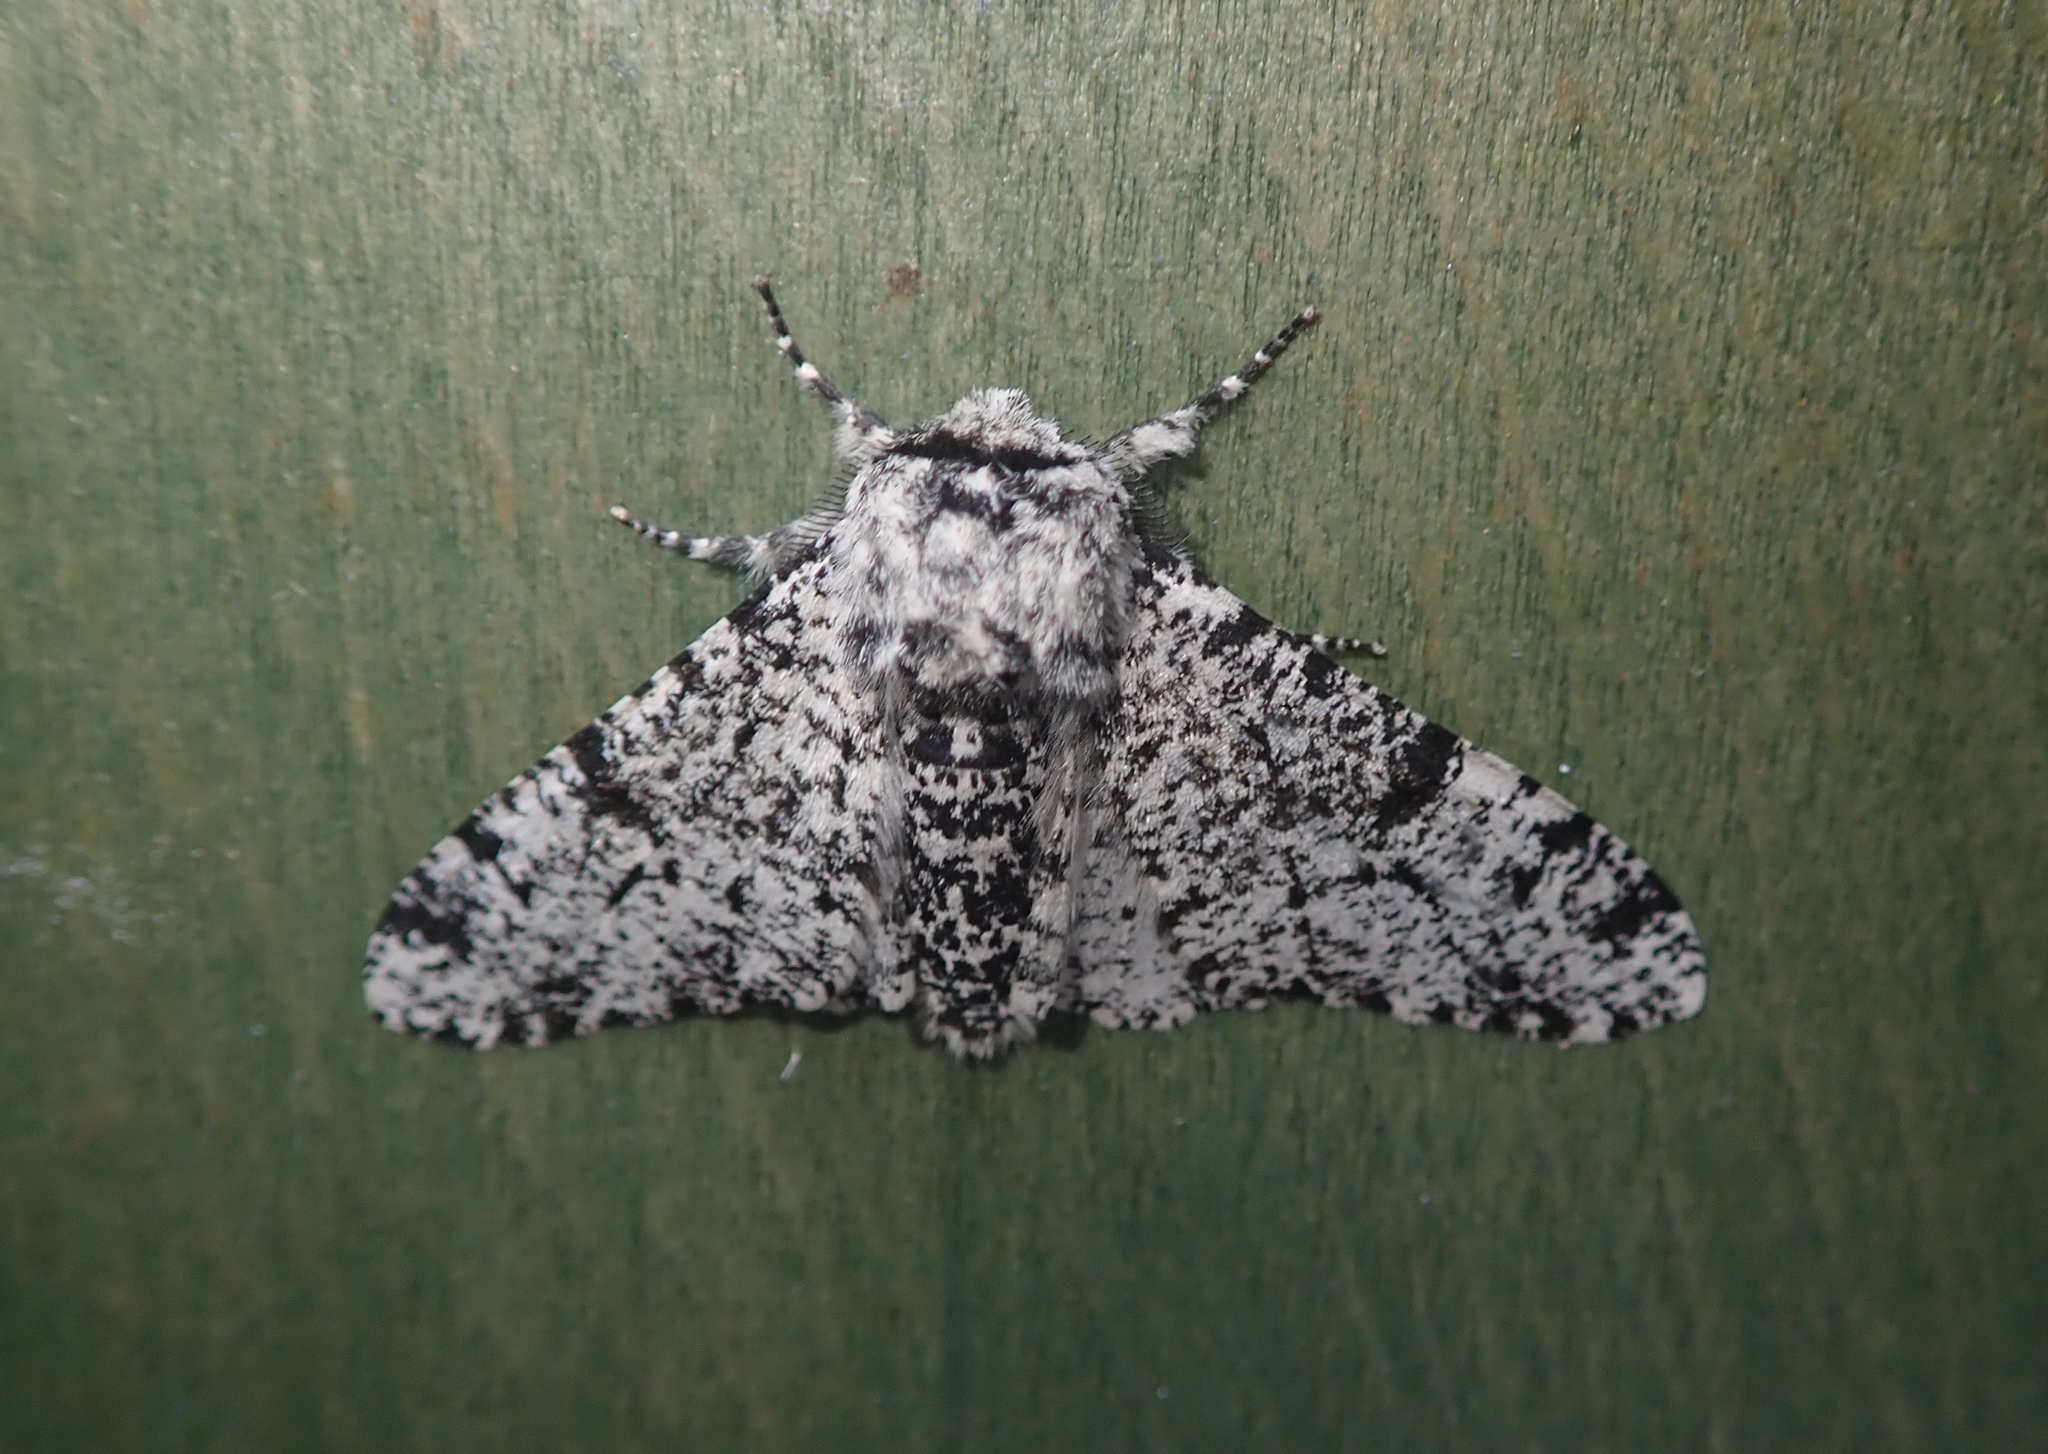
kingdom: Animalia
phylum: Arthropoda
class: Insecta
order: Lepidoptera
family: Geometridae
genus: Biston
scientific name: Biston betularia
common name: Peppered moth
